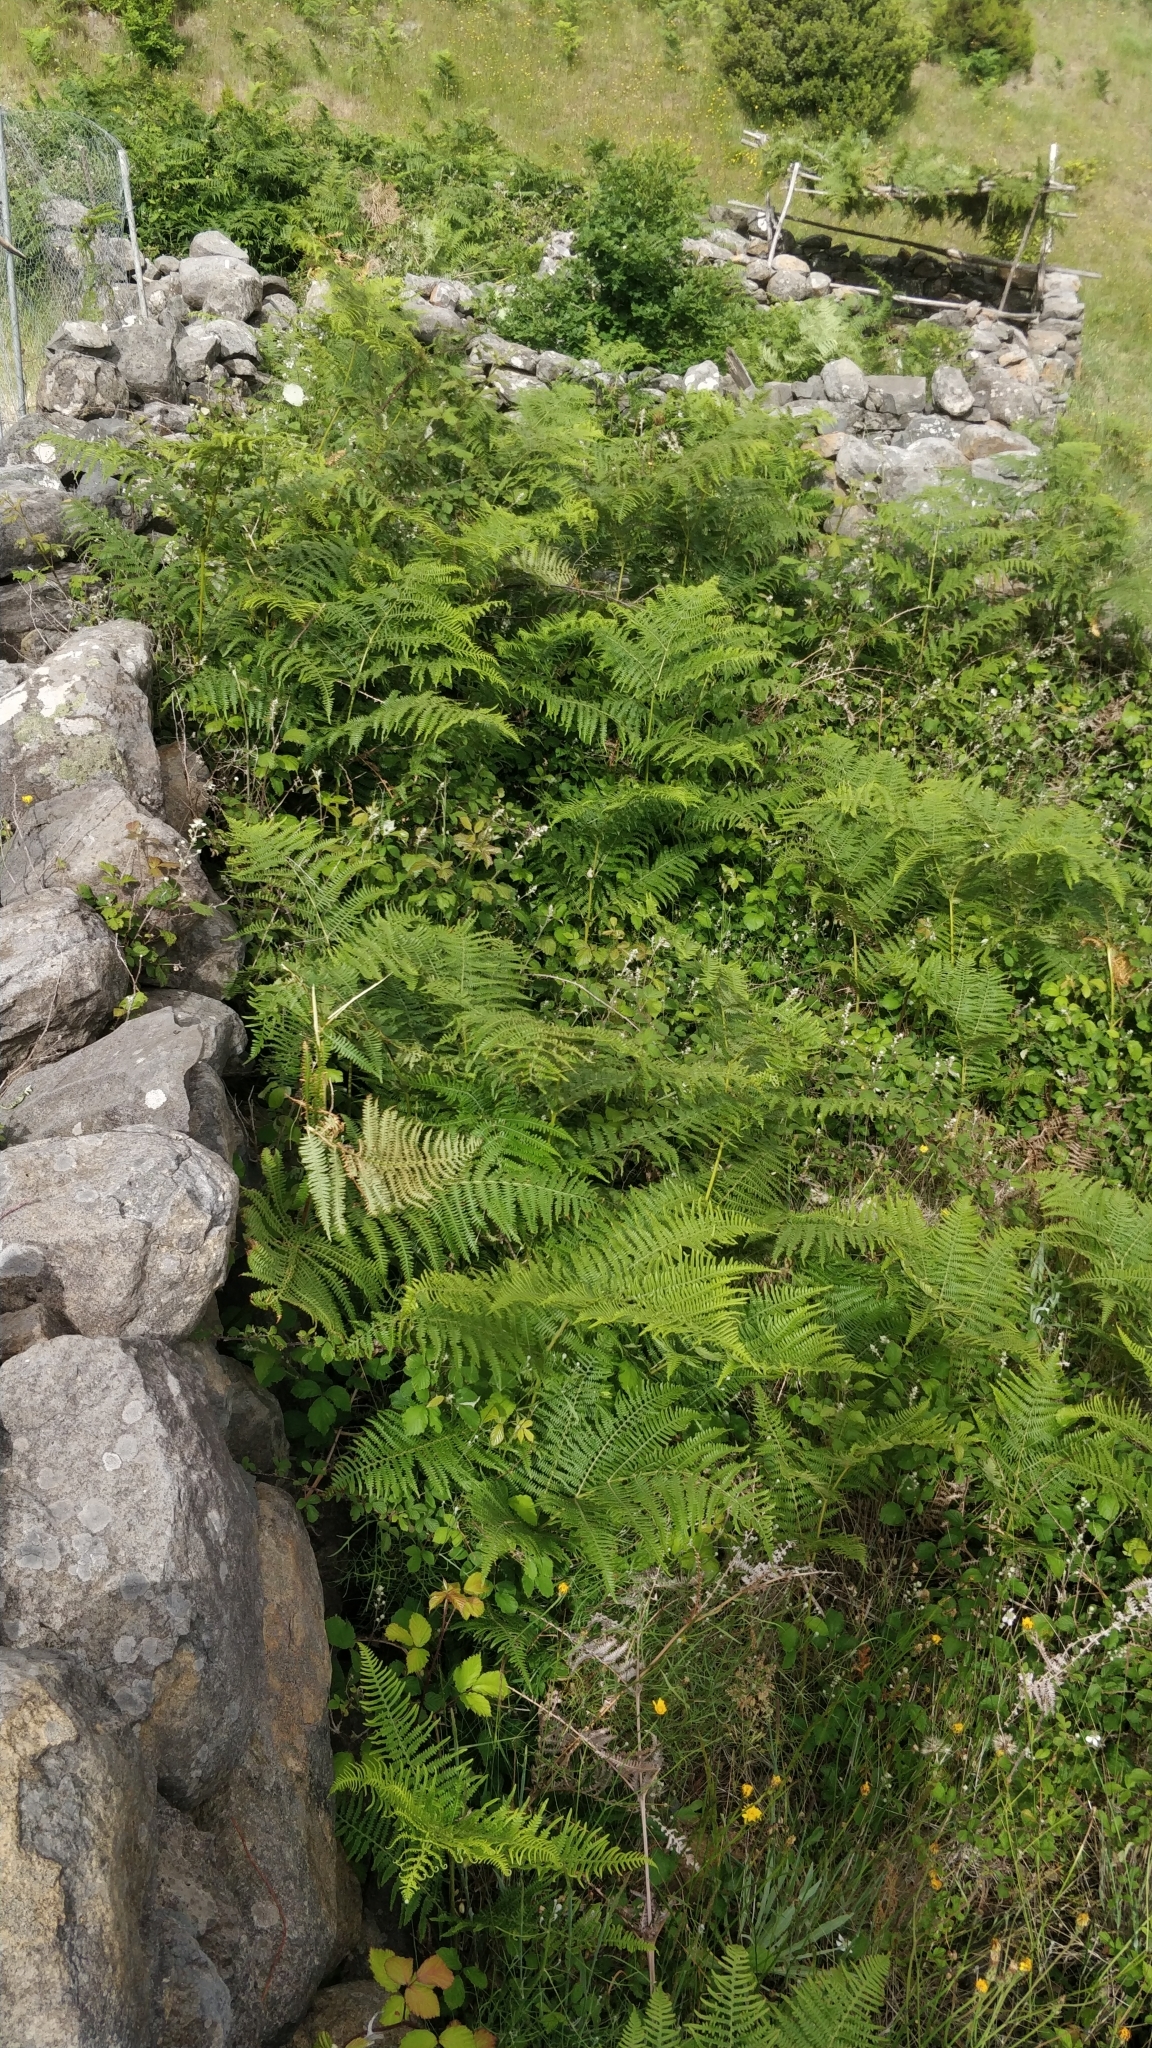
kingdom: Plantae
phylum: Tracheophyta
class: Polypodiopsida
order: Polypodiales
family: Dennstaedtiaceae
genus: Pteridium
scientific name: Pteridium aquilinum
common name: Bracken
